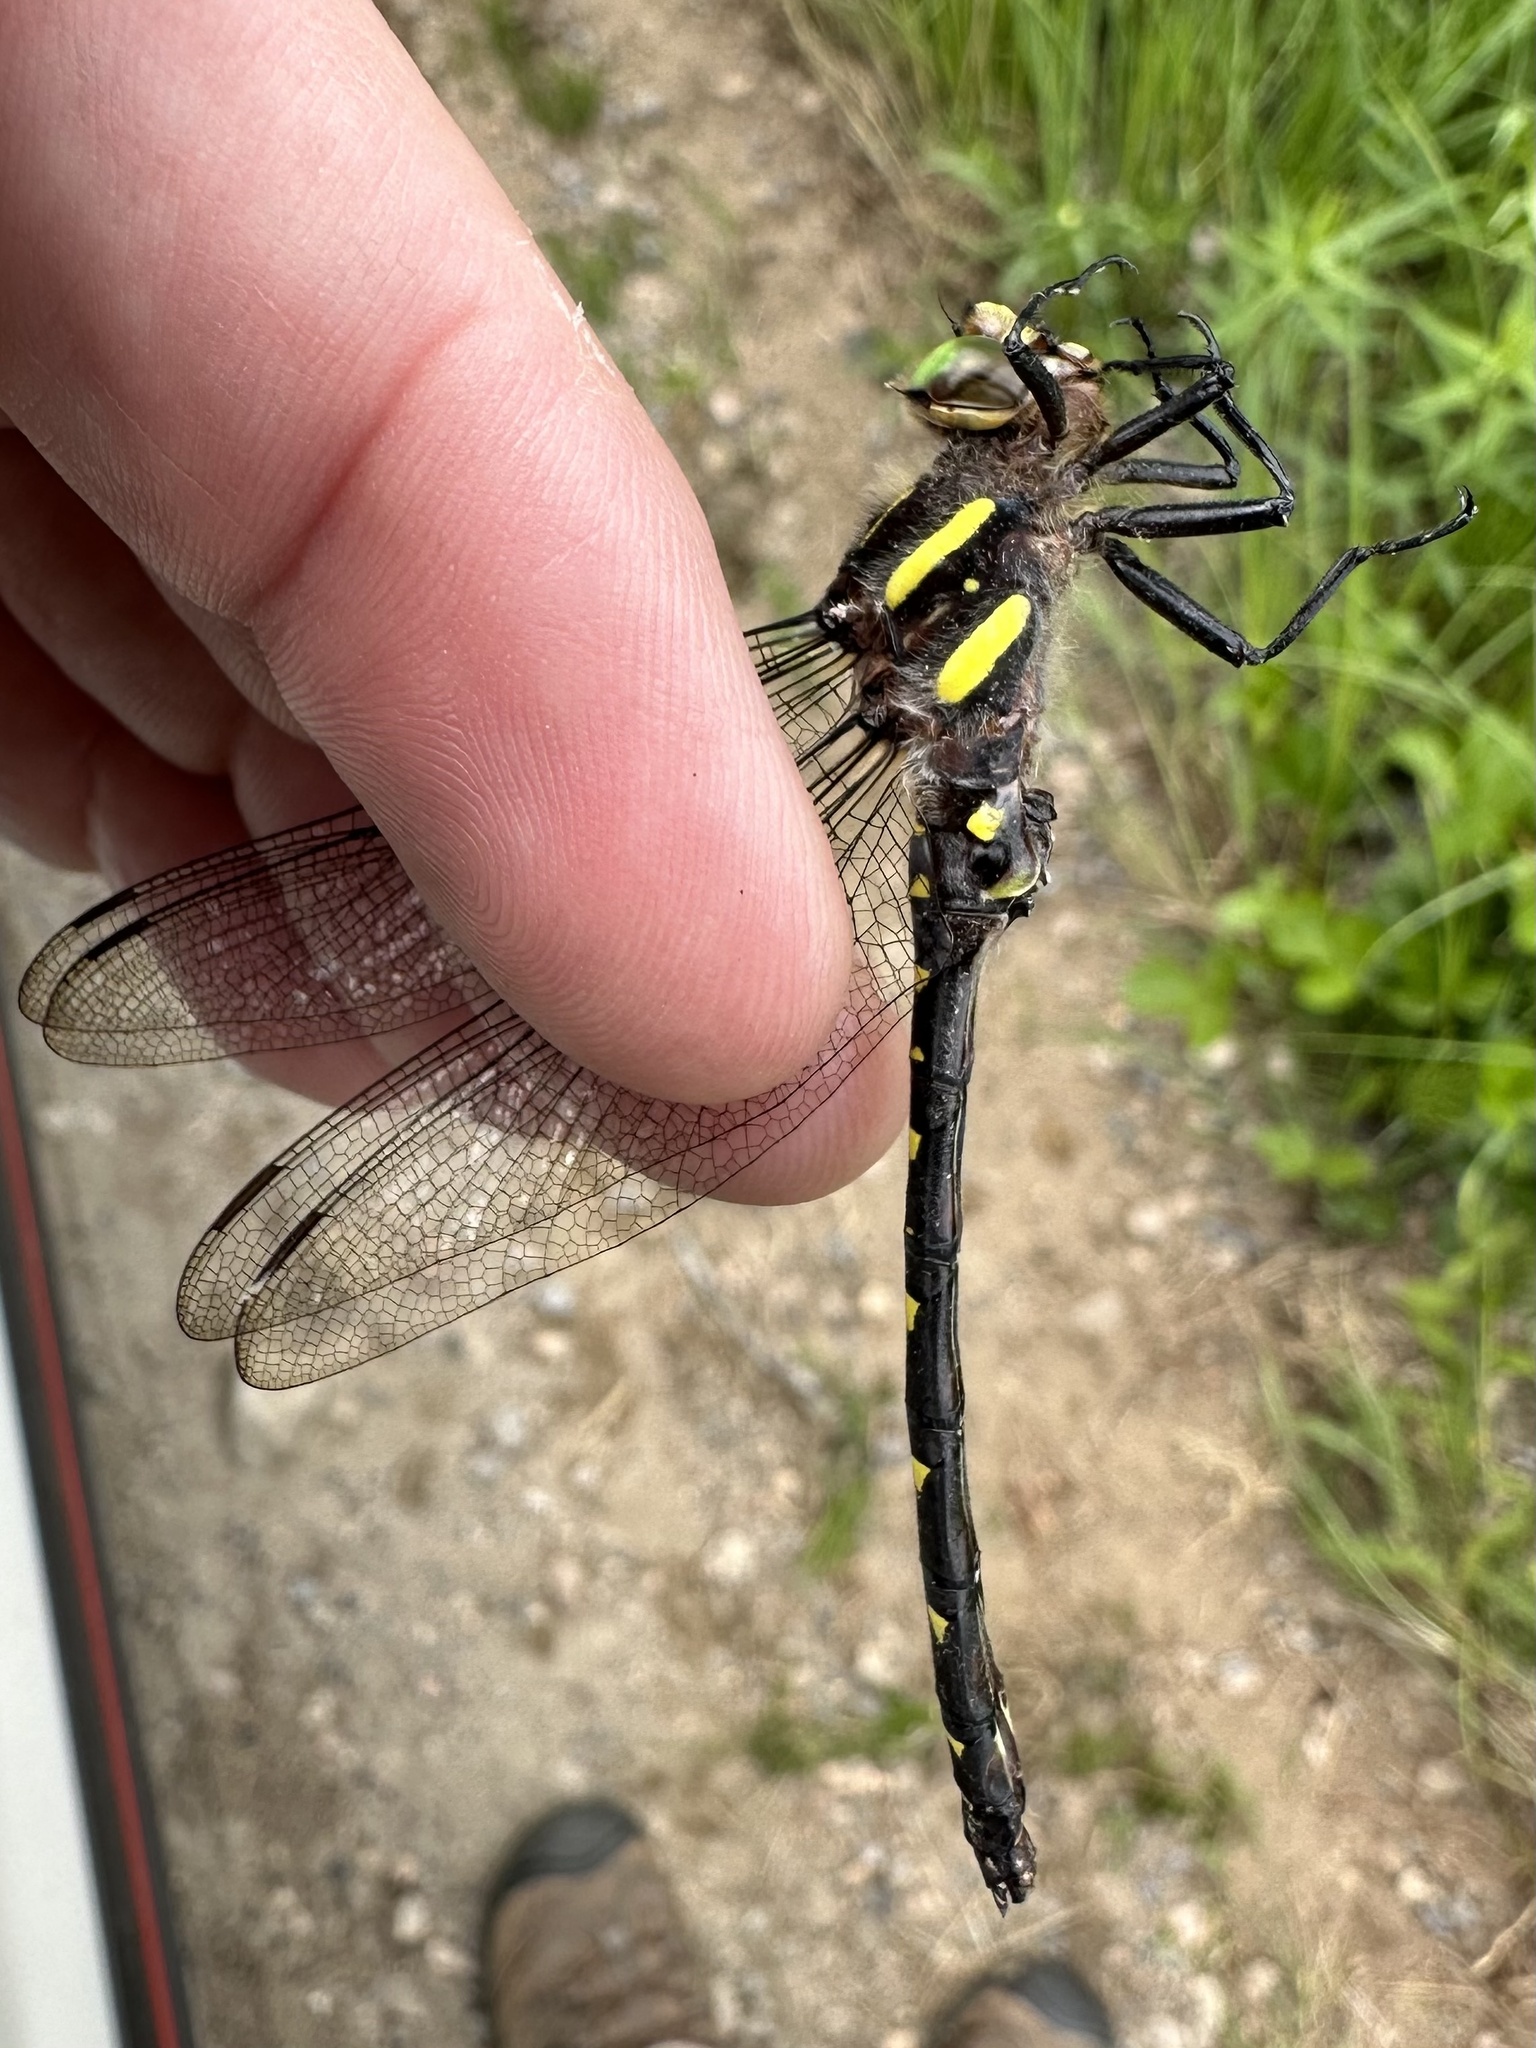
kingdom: Animalia
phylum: Arthropoda
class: Insecta
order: Odonata
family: Cordulegastridae
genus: Cordulegaster
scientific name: Cordulegaster maculata
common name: Twin-spotted spiketail
